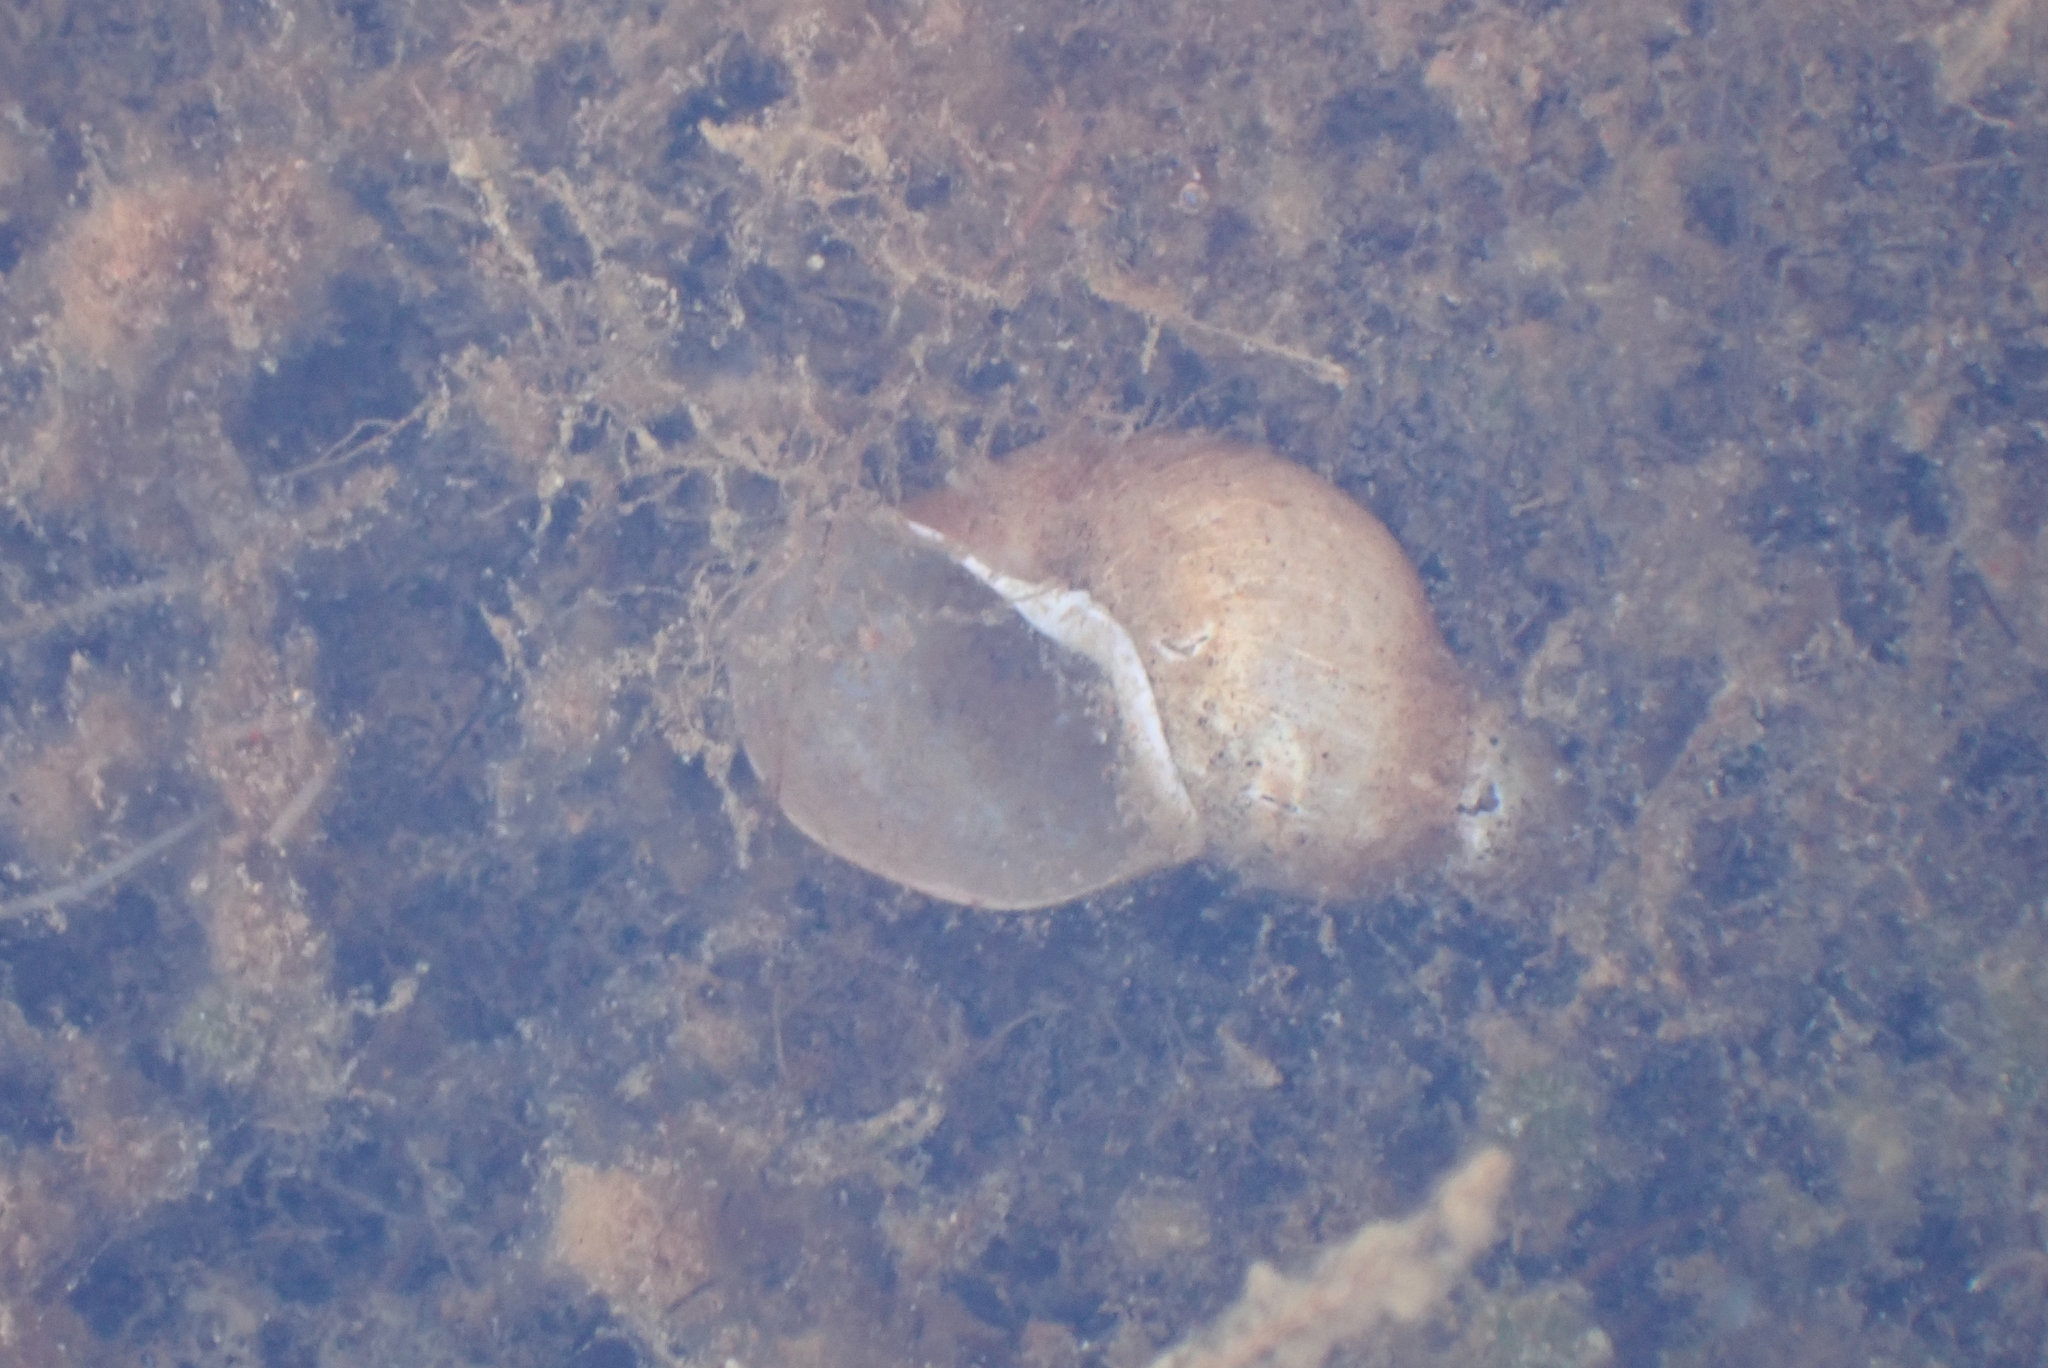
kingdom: Animalia
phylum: Mollusca
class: Gastropoda
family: Lymnaeidae
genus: Lymnaea
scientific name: Lymnaea stagnalis
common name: Great pond snail
